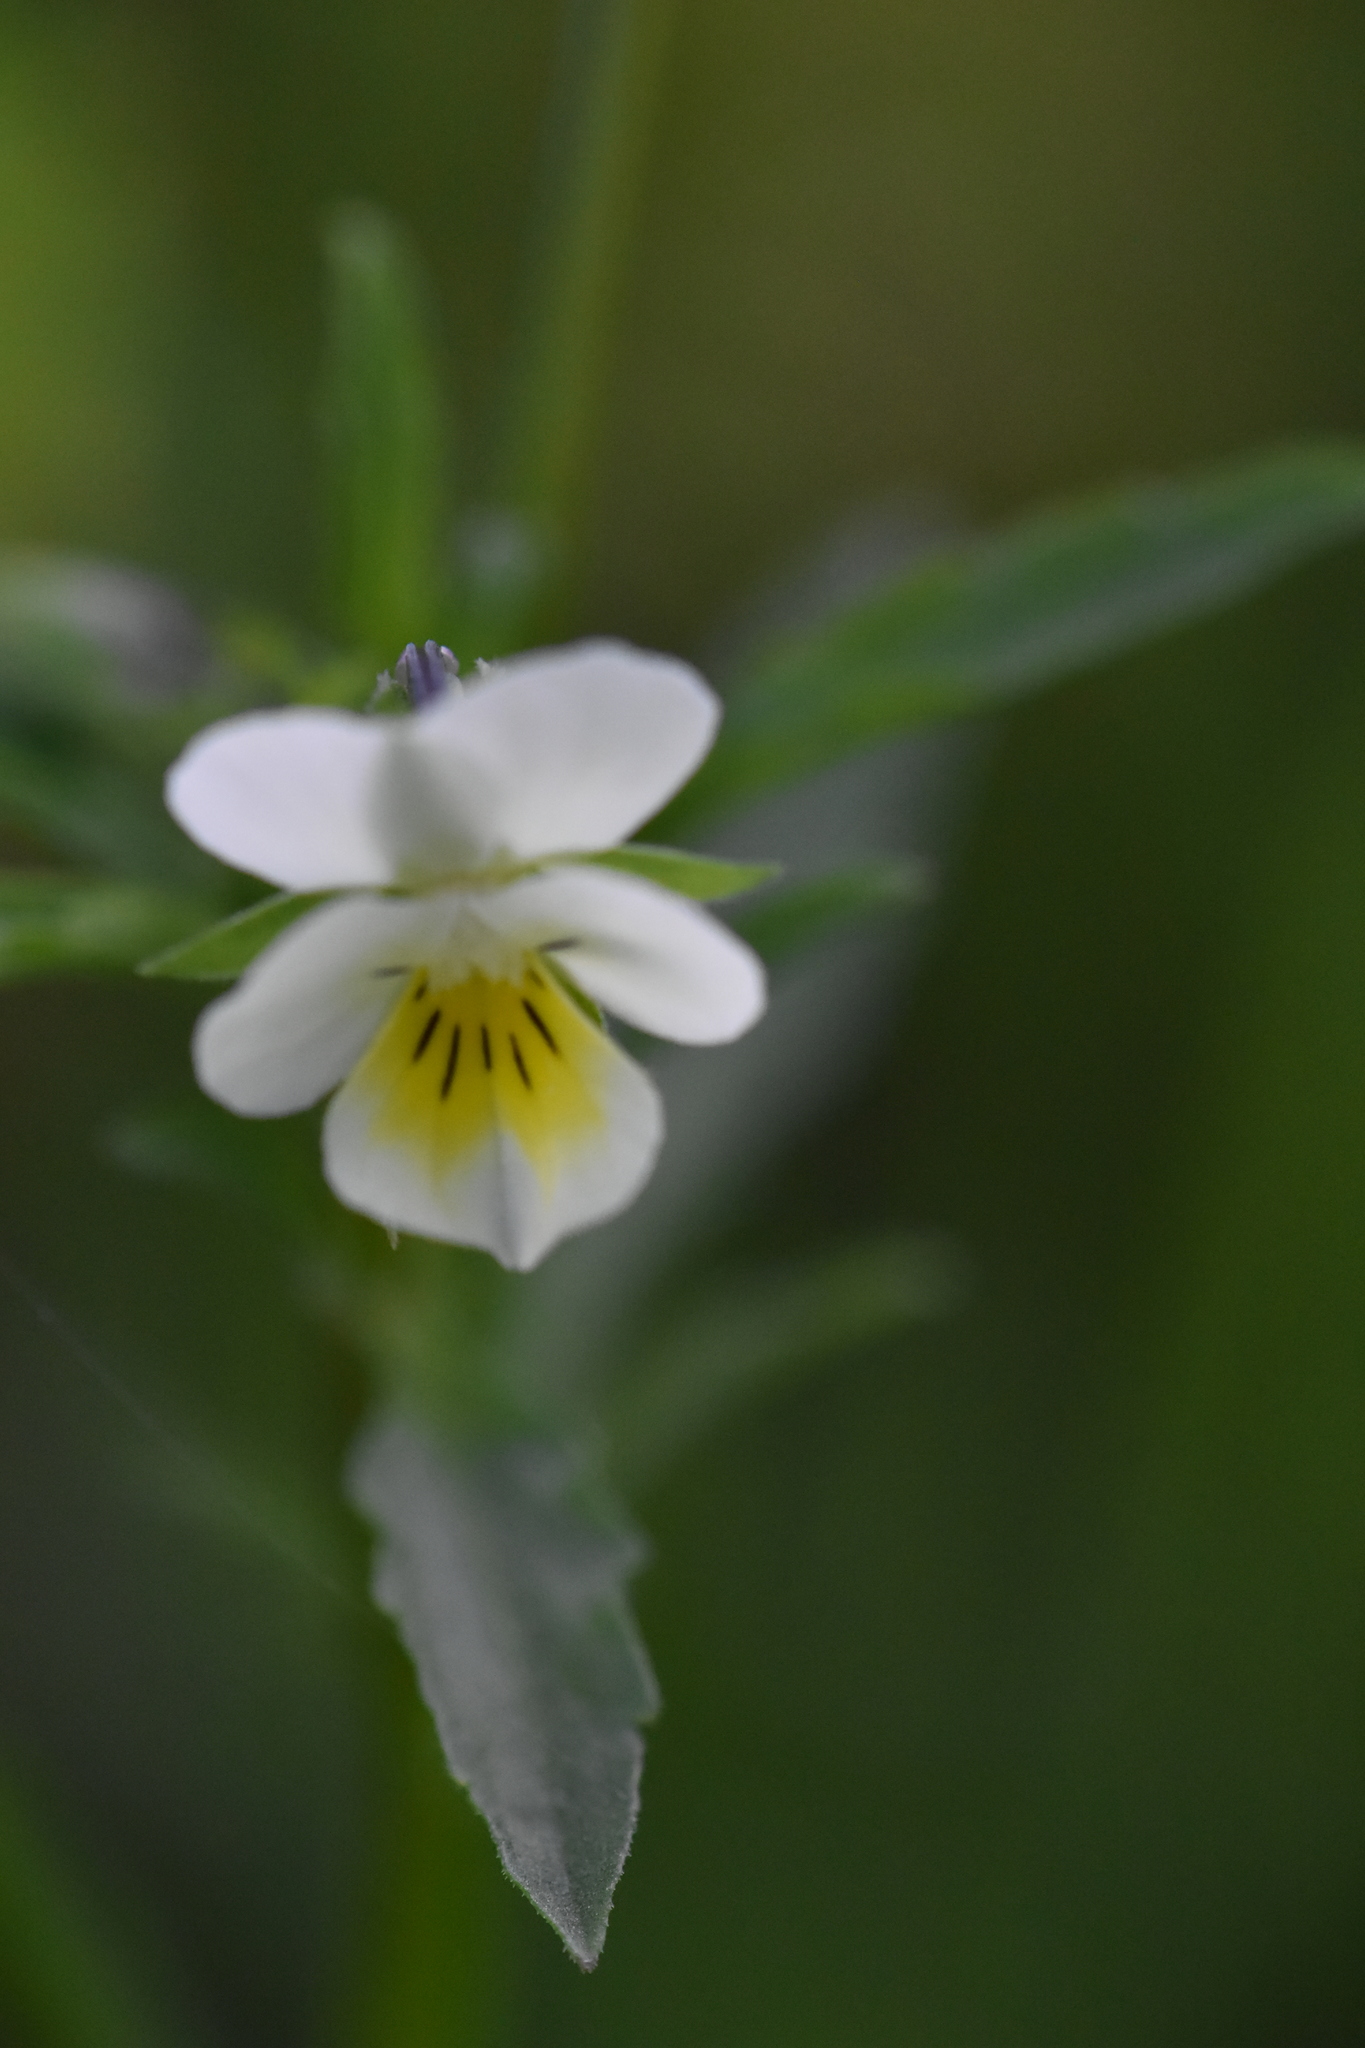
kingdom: Plantae
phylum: Tracheophyta
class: Magnoliopsida
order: Malpighiales
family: Violaceae
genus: Viola
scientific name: Viola arvensis
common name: Field pansy
